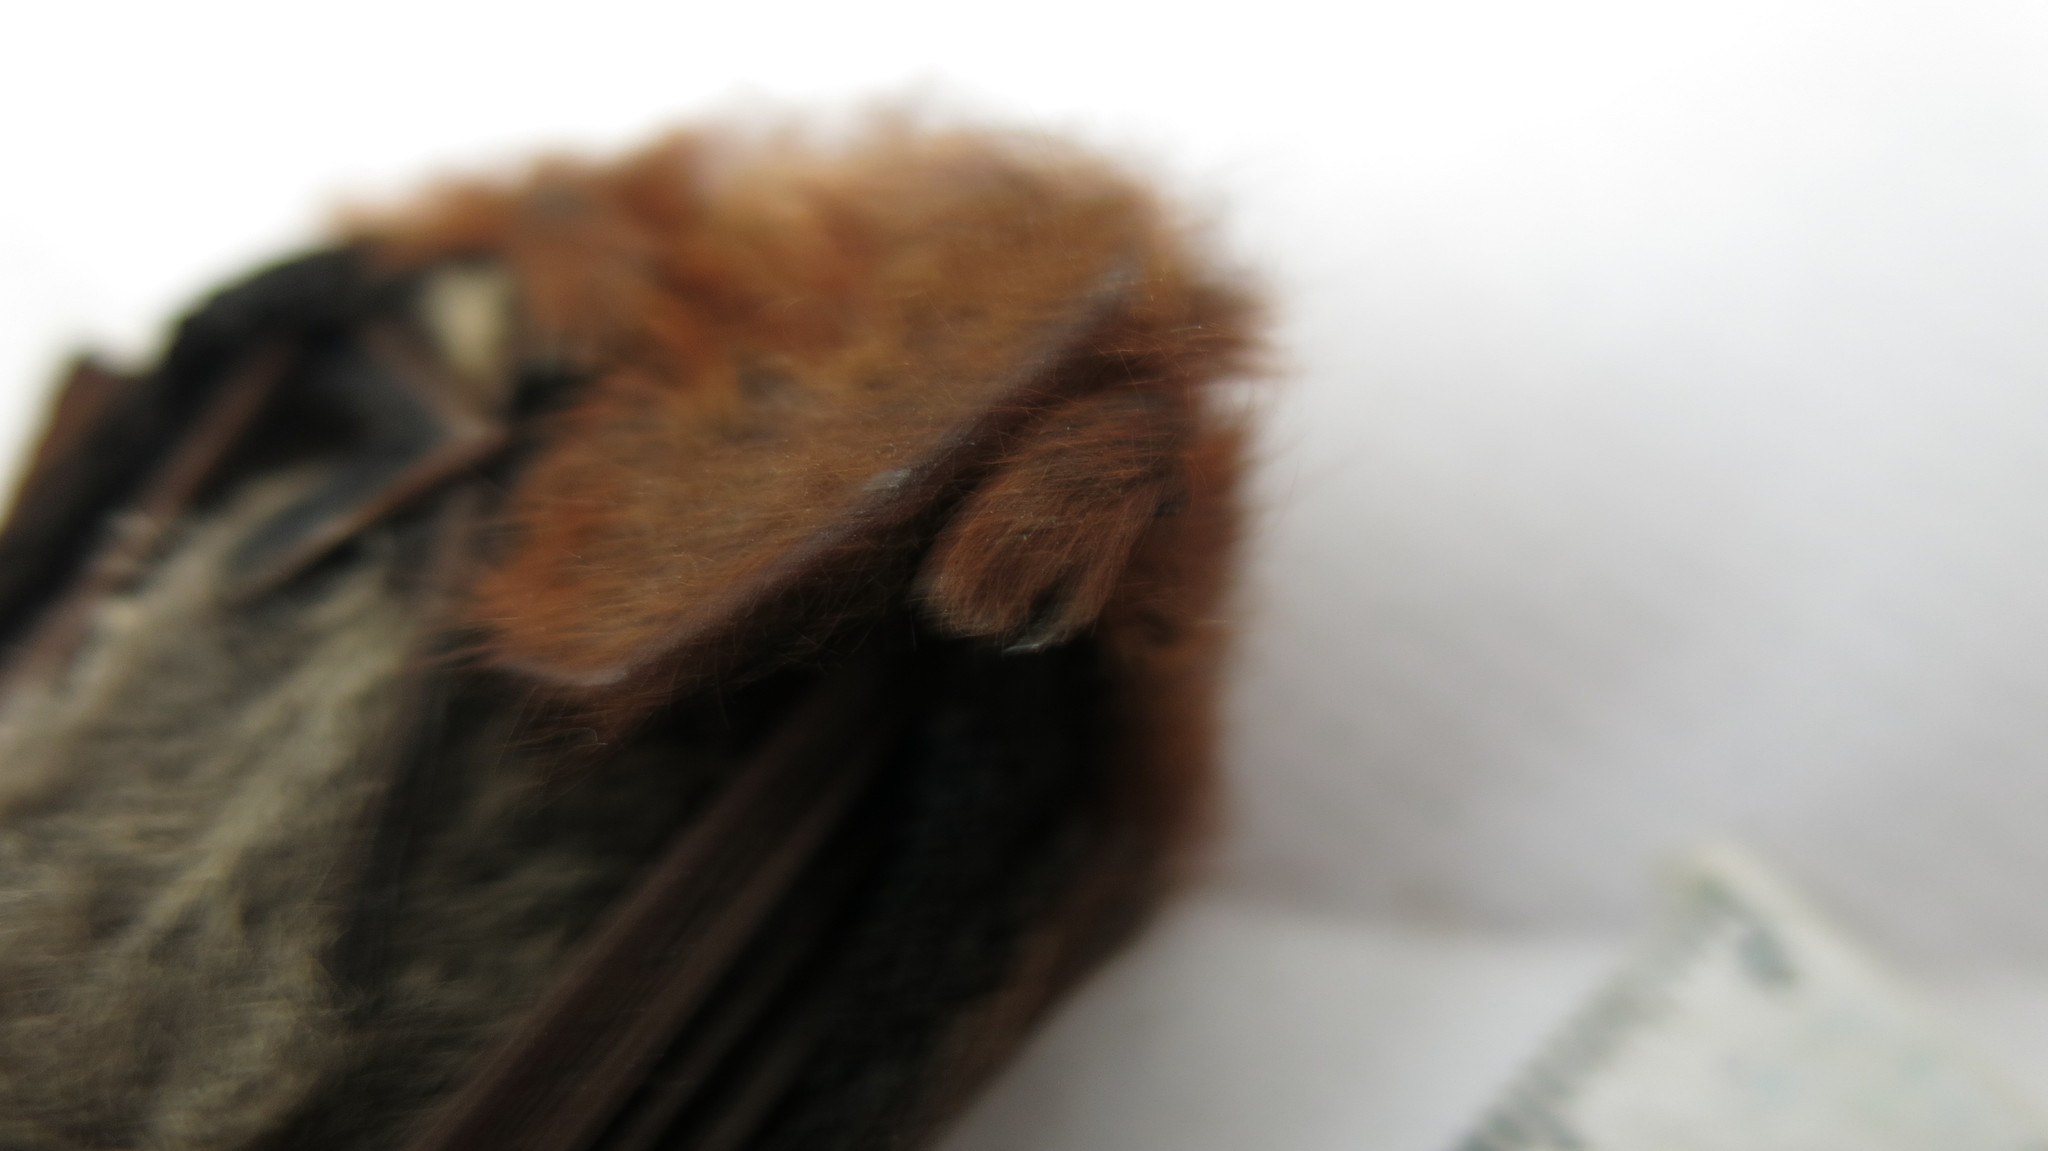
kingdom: Animalia
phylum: Chordata
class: Mammalia
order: Chiroptera
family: Vespertilionidae
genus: Lasiurus
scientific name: Lasiurus blossevillii
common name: Southern red bat
